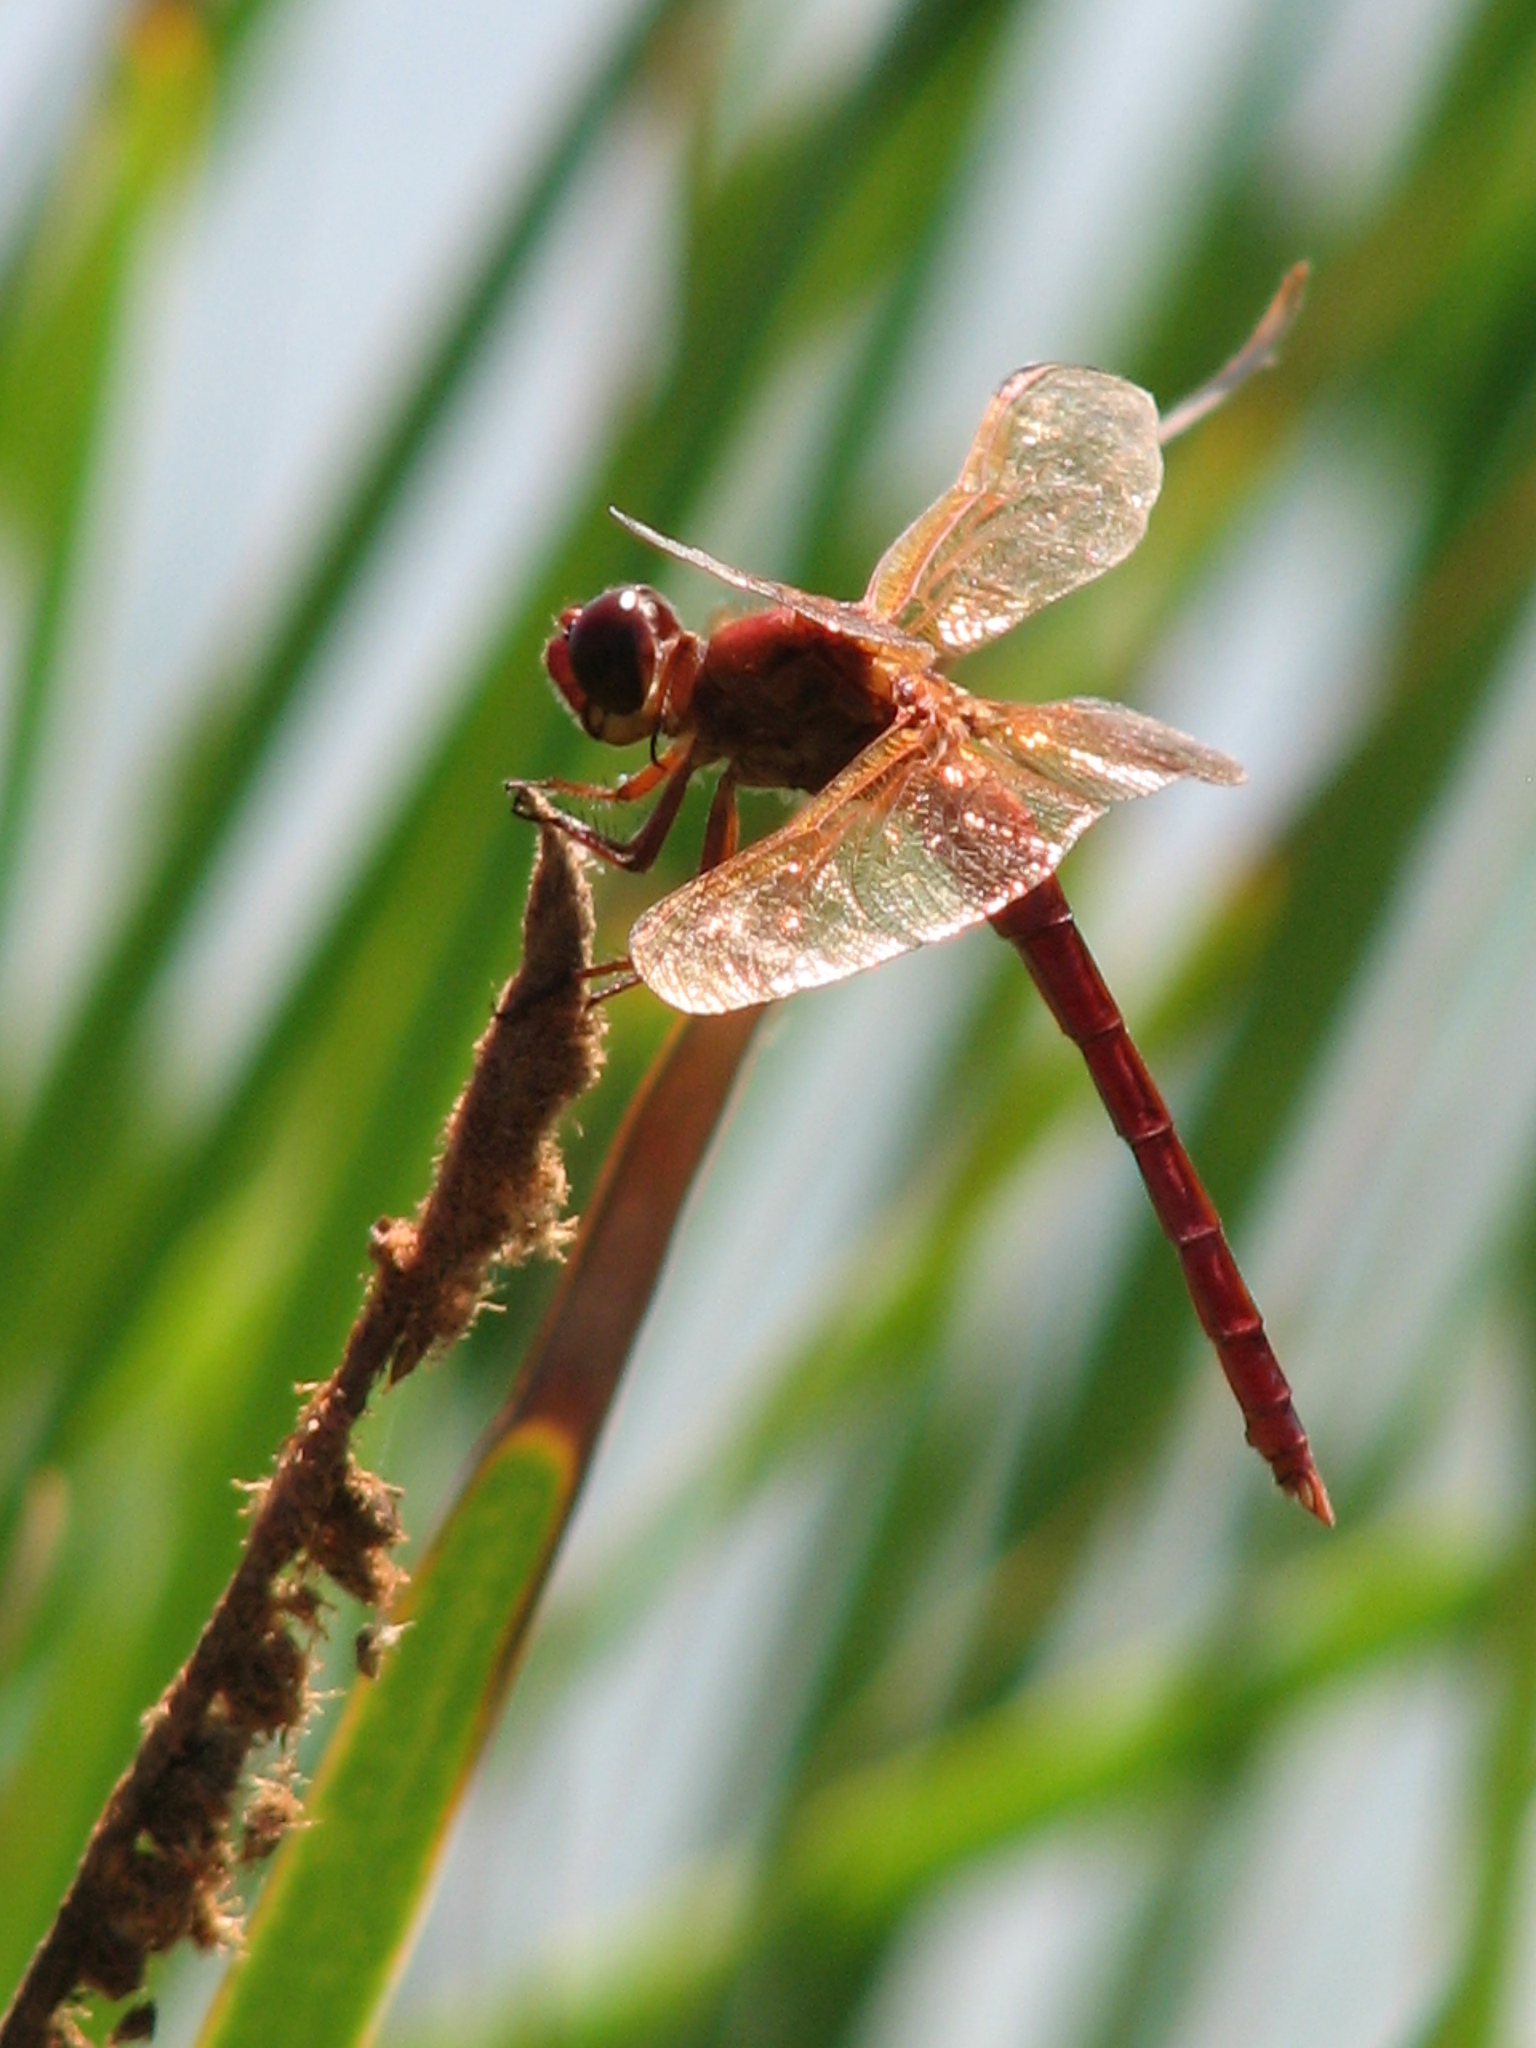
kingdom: Animalia
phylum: Arthropoda
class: Insecta
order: Odonata
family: Libellulidae
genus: Libellula
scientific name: Libellula needhami
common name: Needham's skimmer
